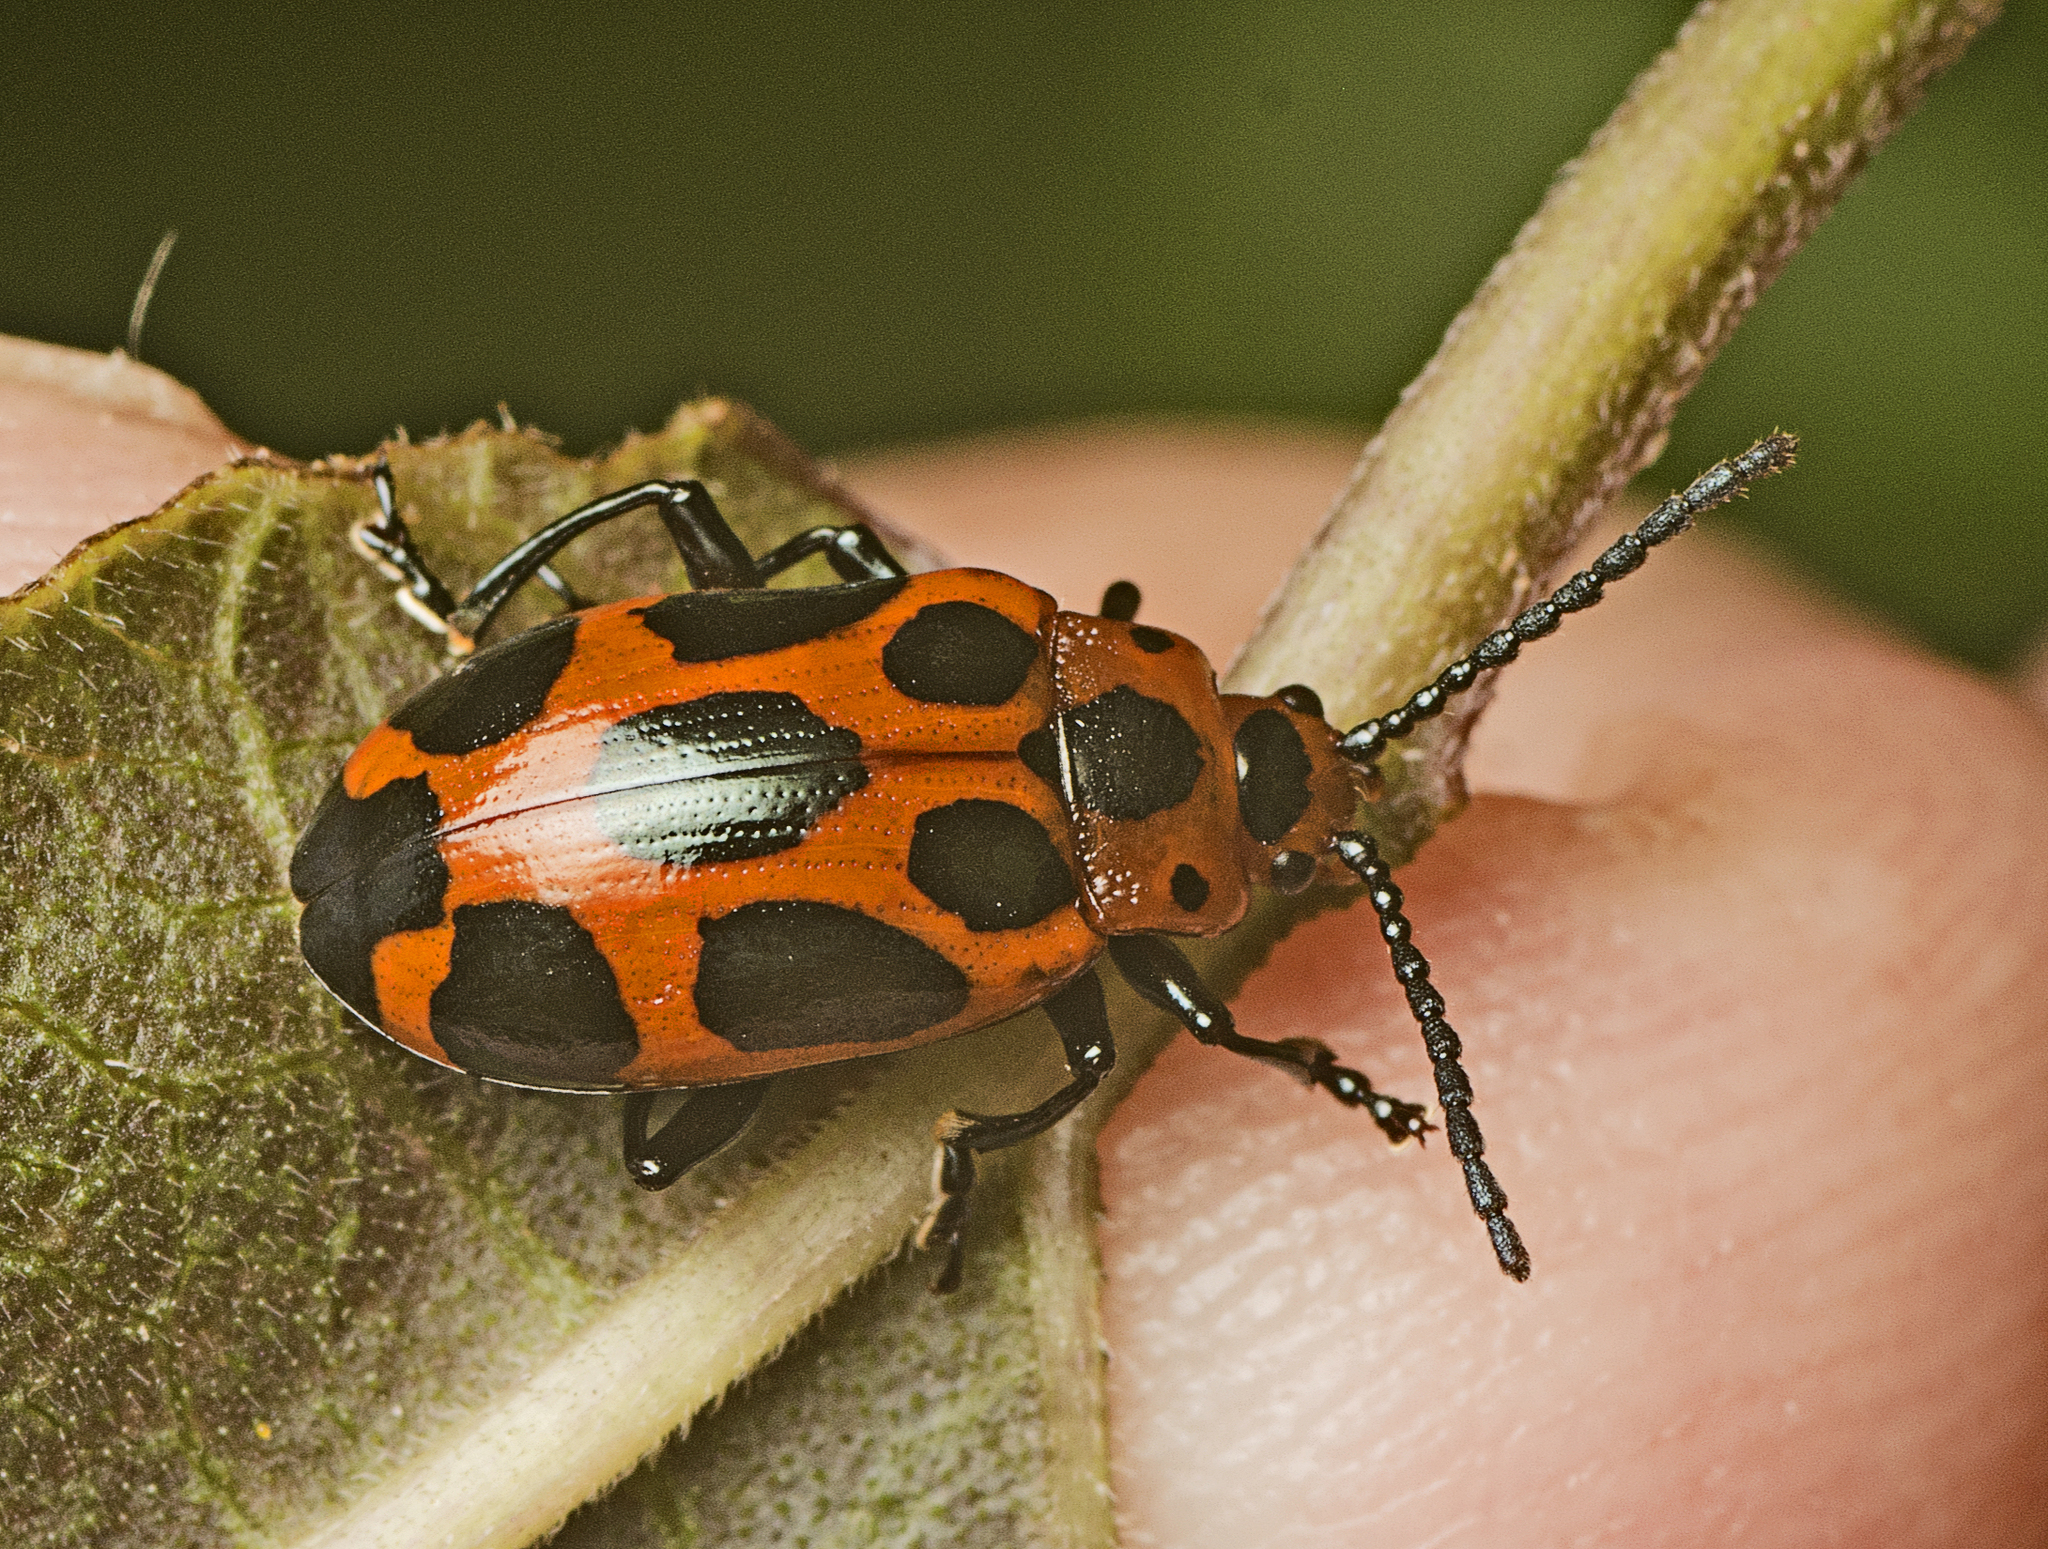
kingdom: Animalia
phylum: Arthropoda
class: Insecta
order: Coleoptera
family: Chrysomelidae
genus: Phyllocharis
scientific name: Phyllocharis
